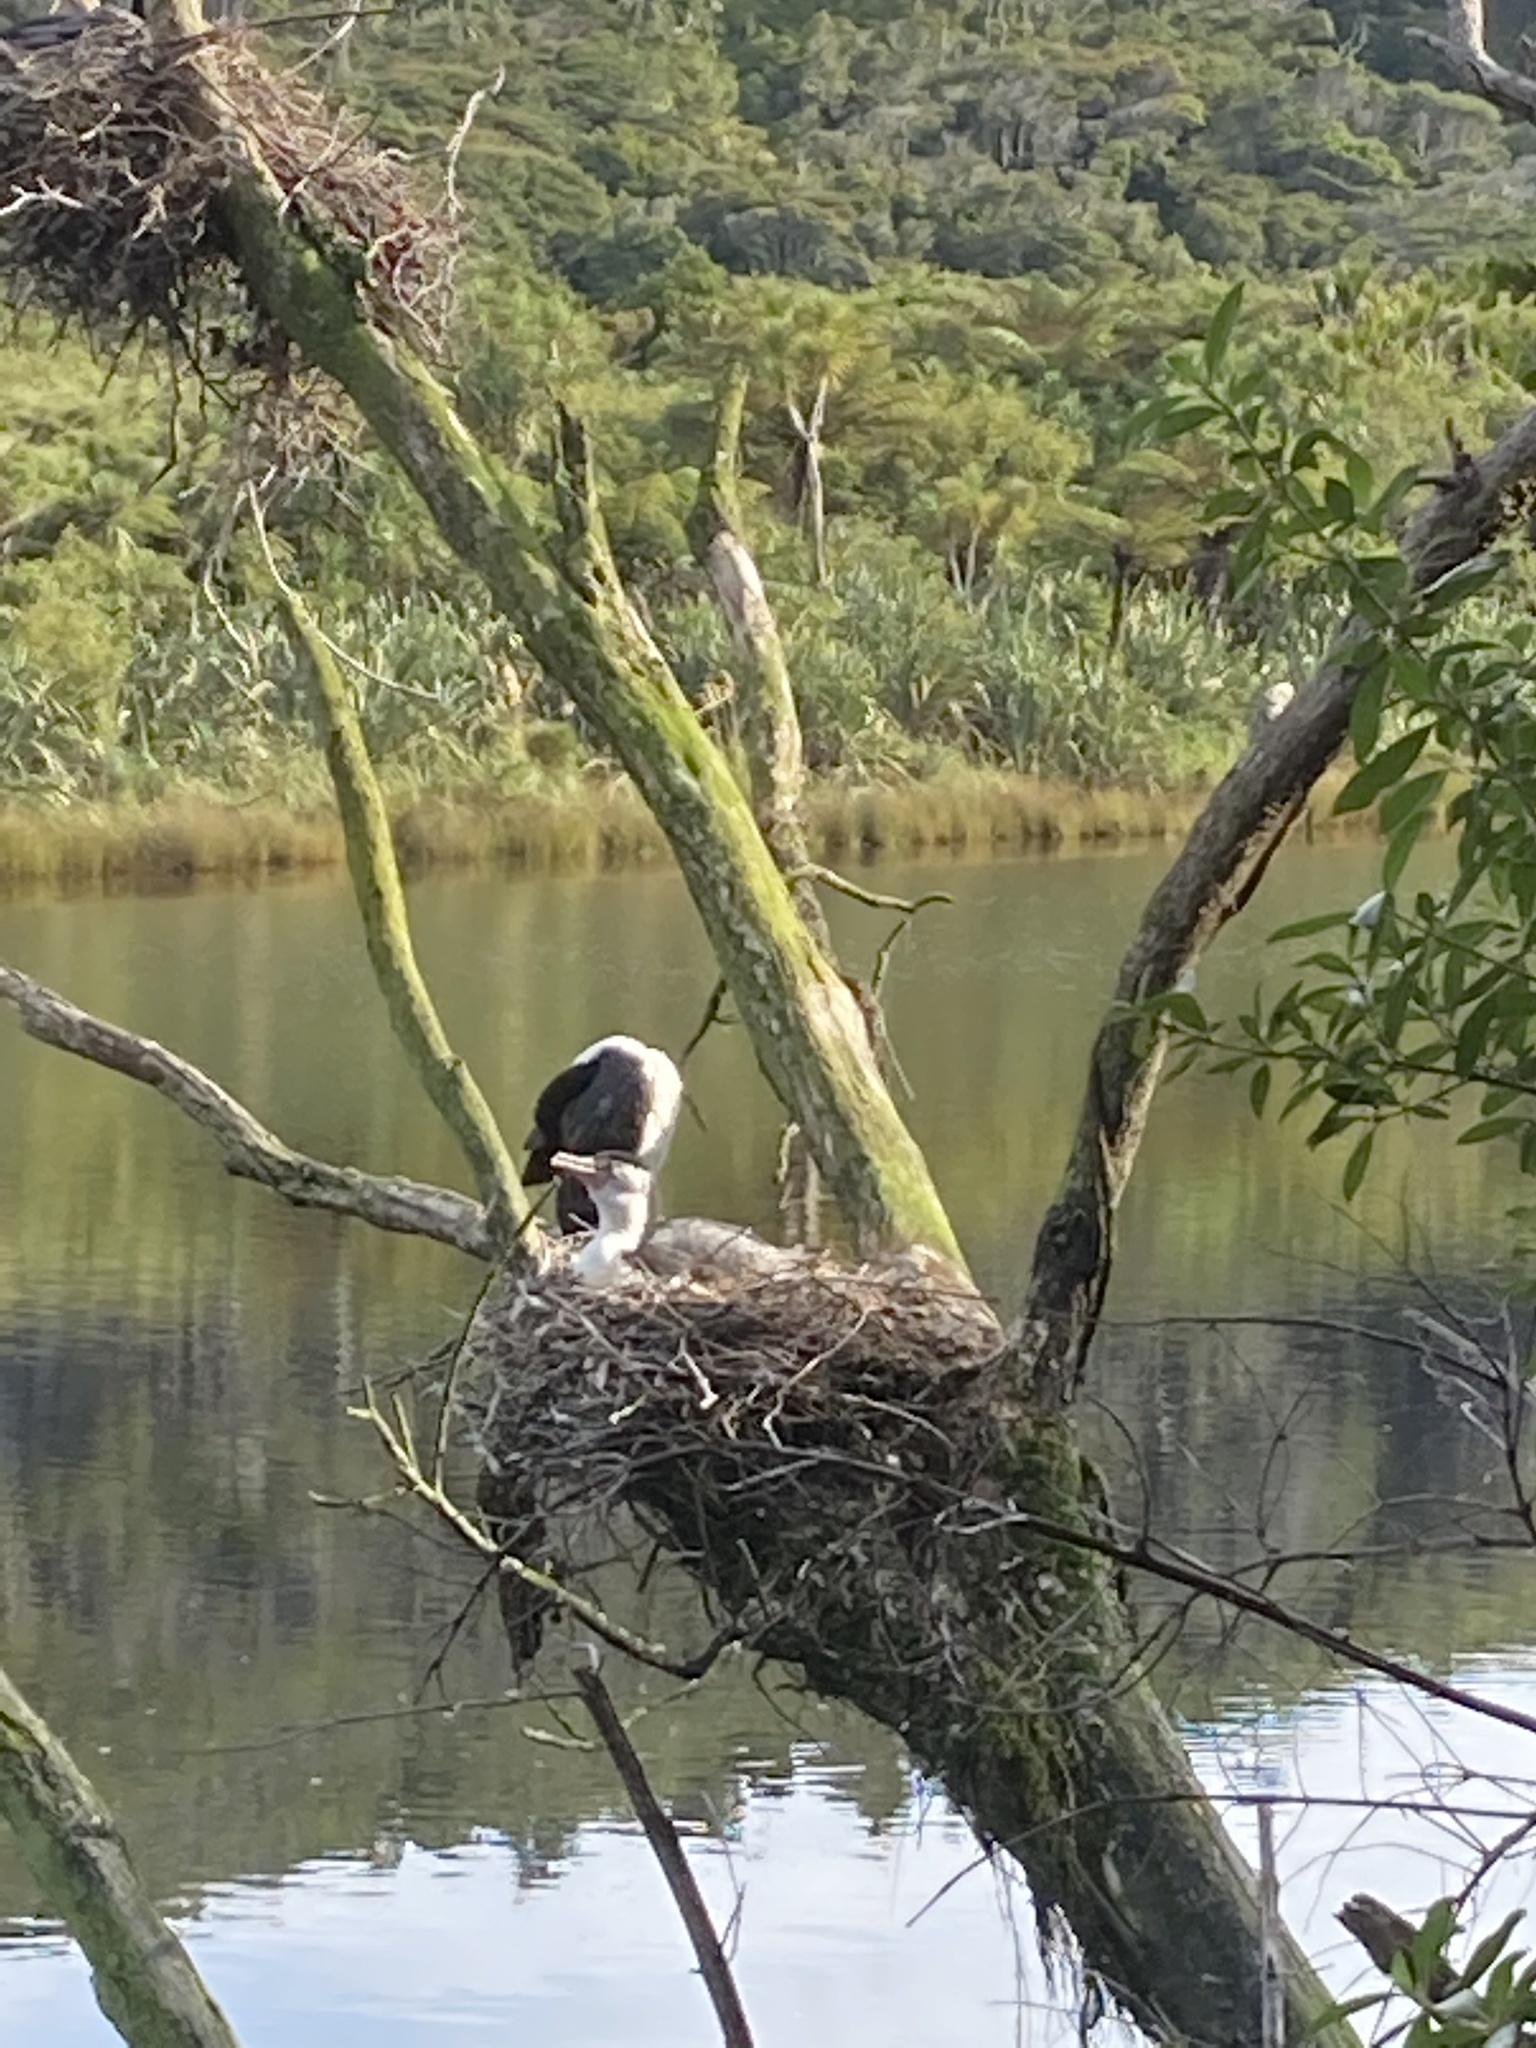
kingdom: Animalia
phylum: Chordata
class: Aves
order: Suliformes
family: Phalacrocoracidae
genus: Phalacrocorax
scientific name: Phalacrocorax varius
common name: Pied cormorant
